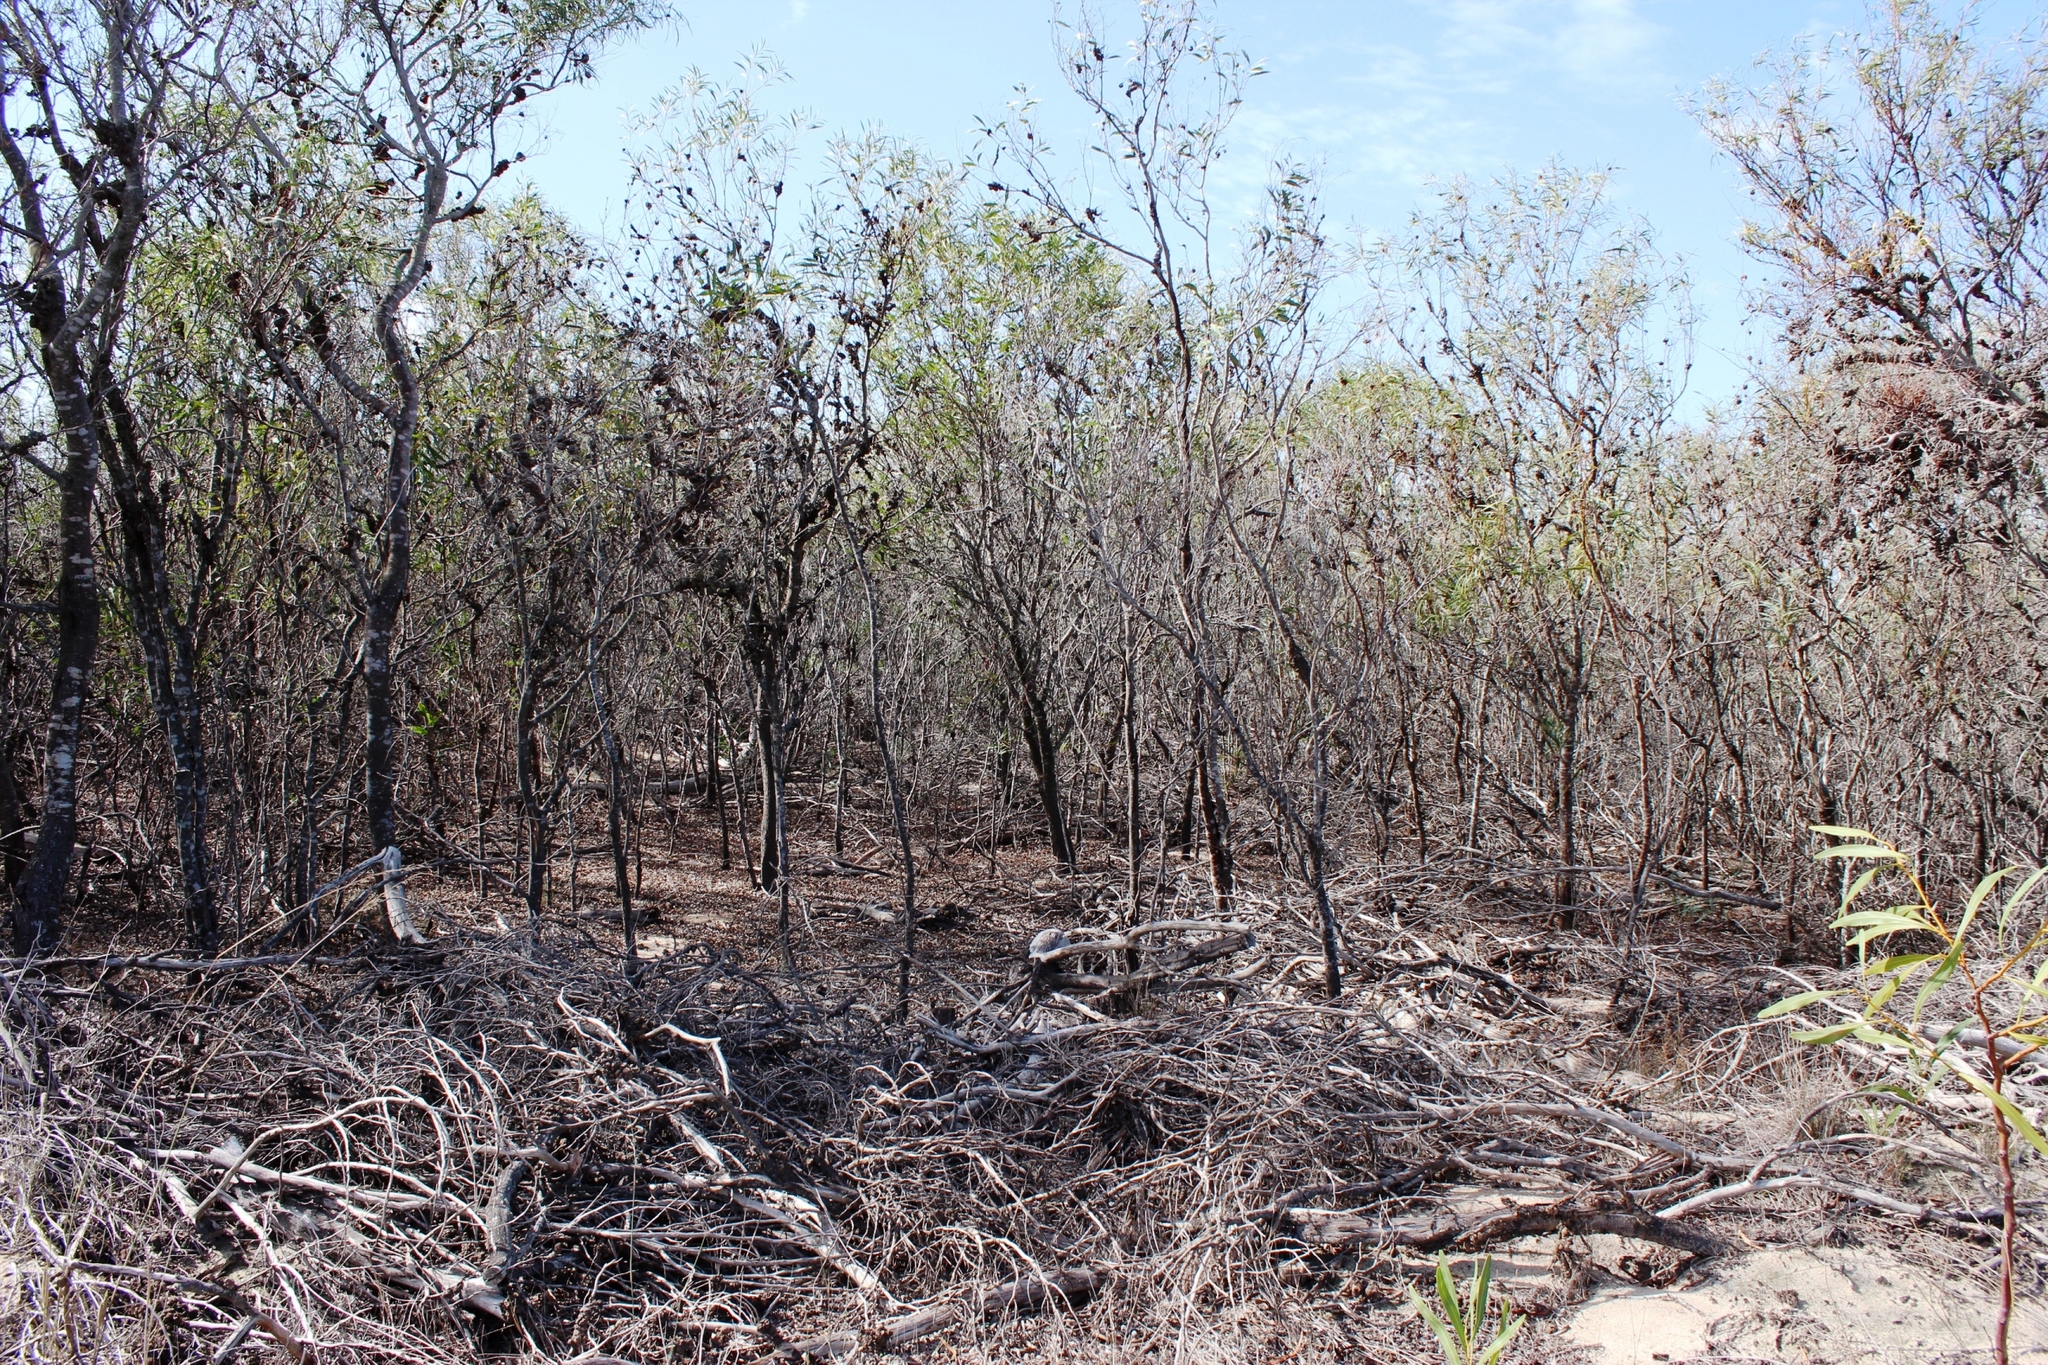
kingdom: Plantae
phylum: Tracheophyta
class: Magnoliopsida
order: Fabales
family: Fabaceae
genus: Acacia
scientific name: Acacia saligna
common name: Orange wattle
